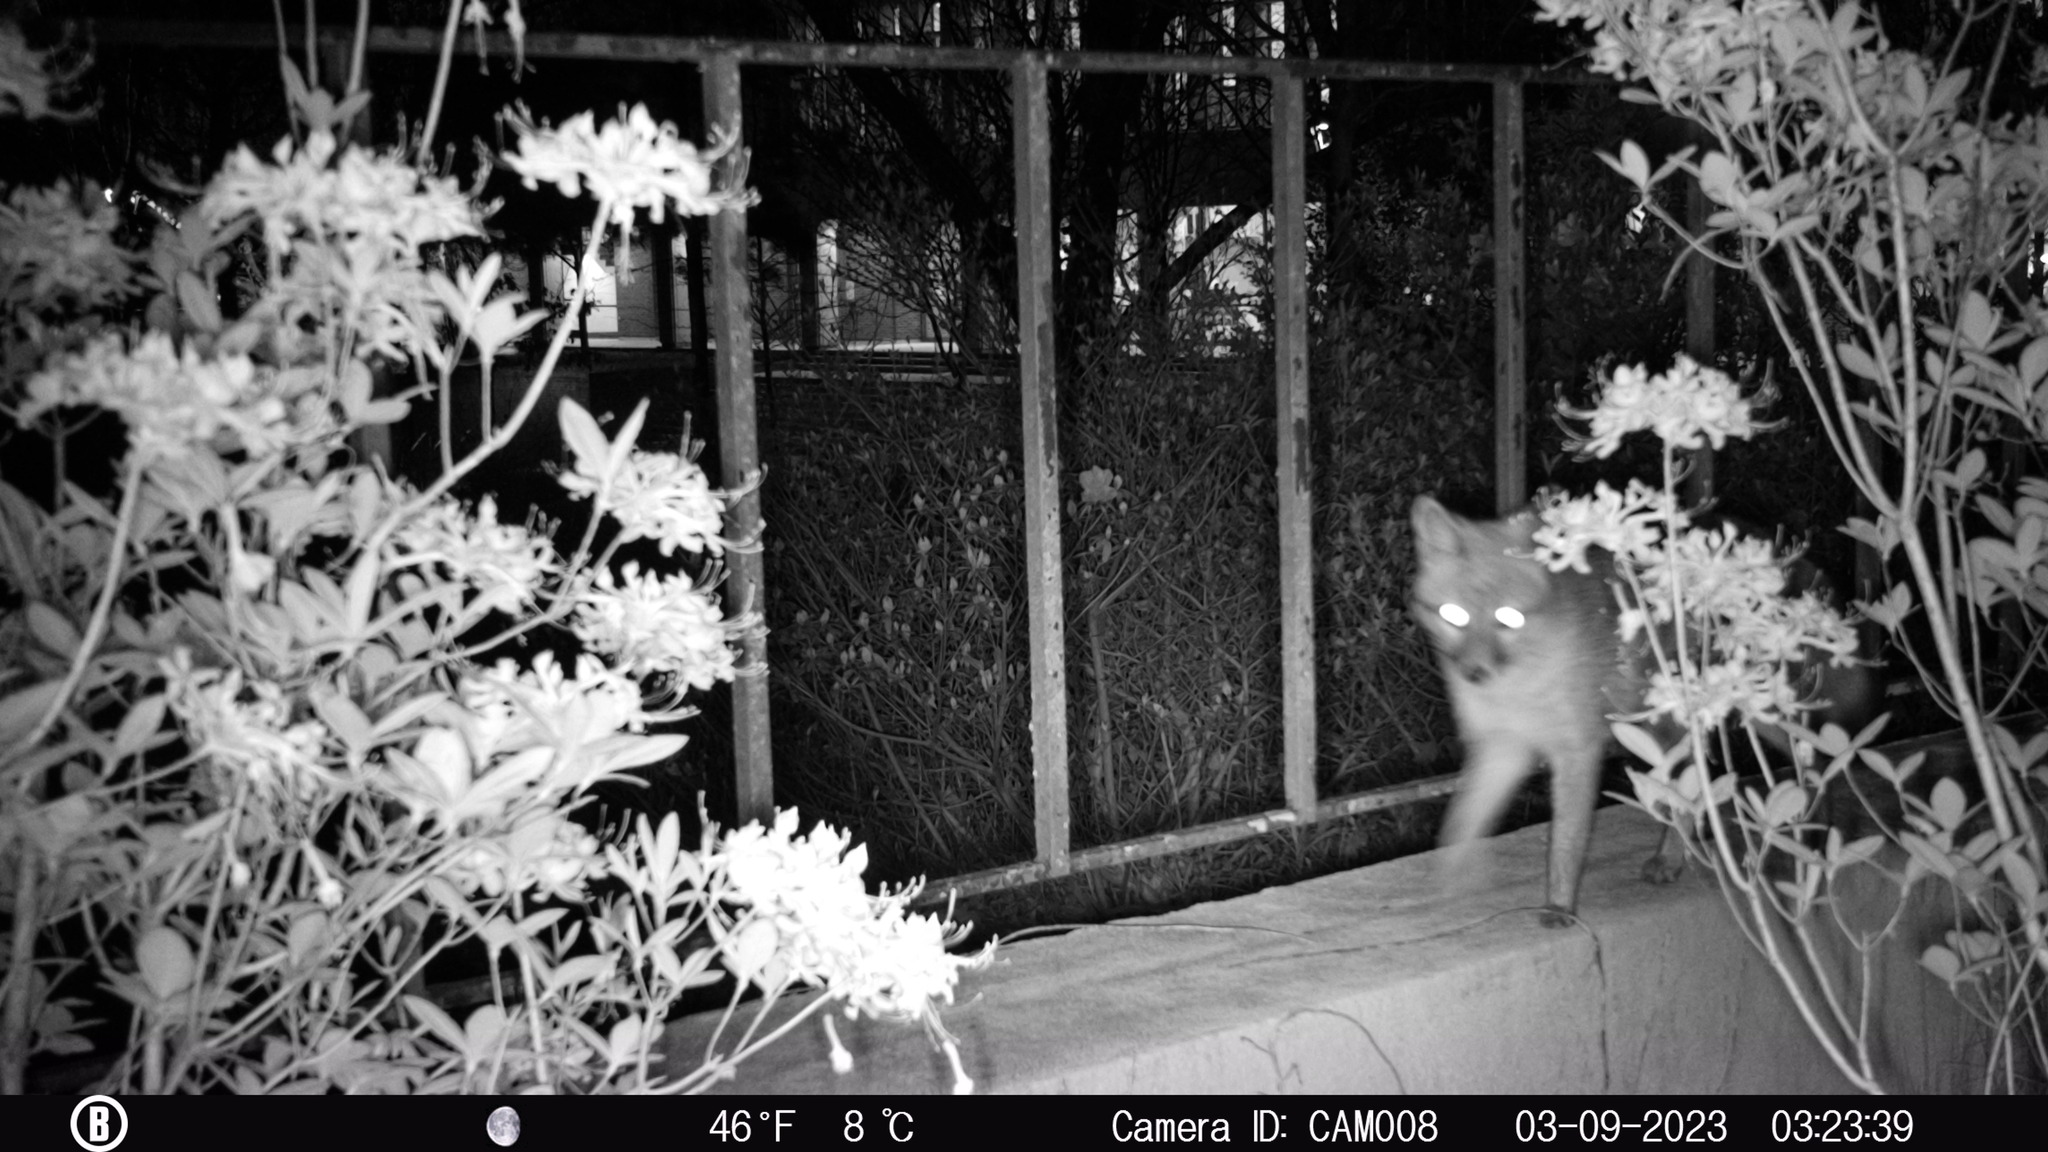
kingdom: Animalia
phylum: Chordata
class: Mammalia
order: Carnivora
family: Canidae
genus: Urocyon
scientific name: Urocyon cinereoargenteus
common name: Gray fox
